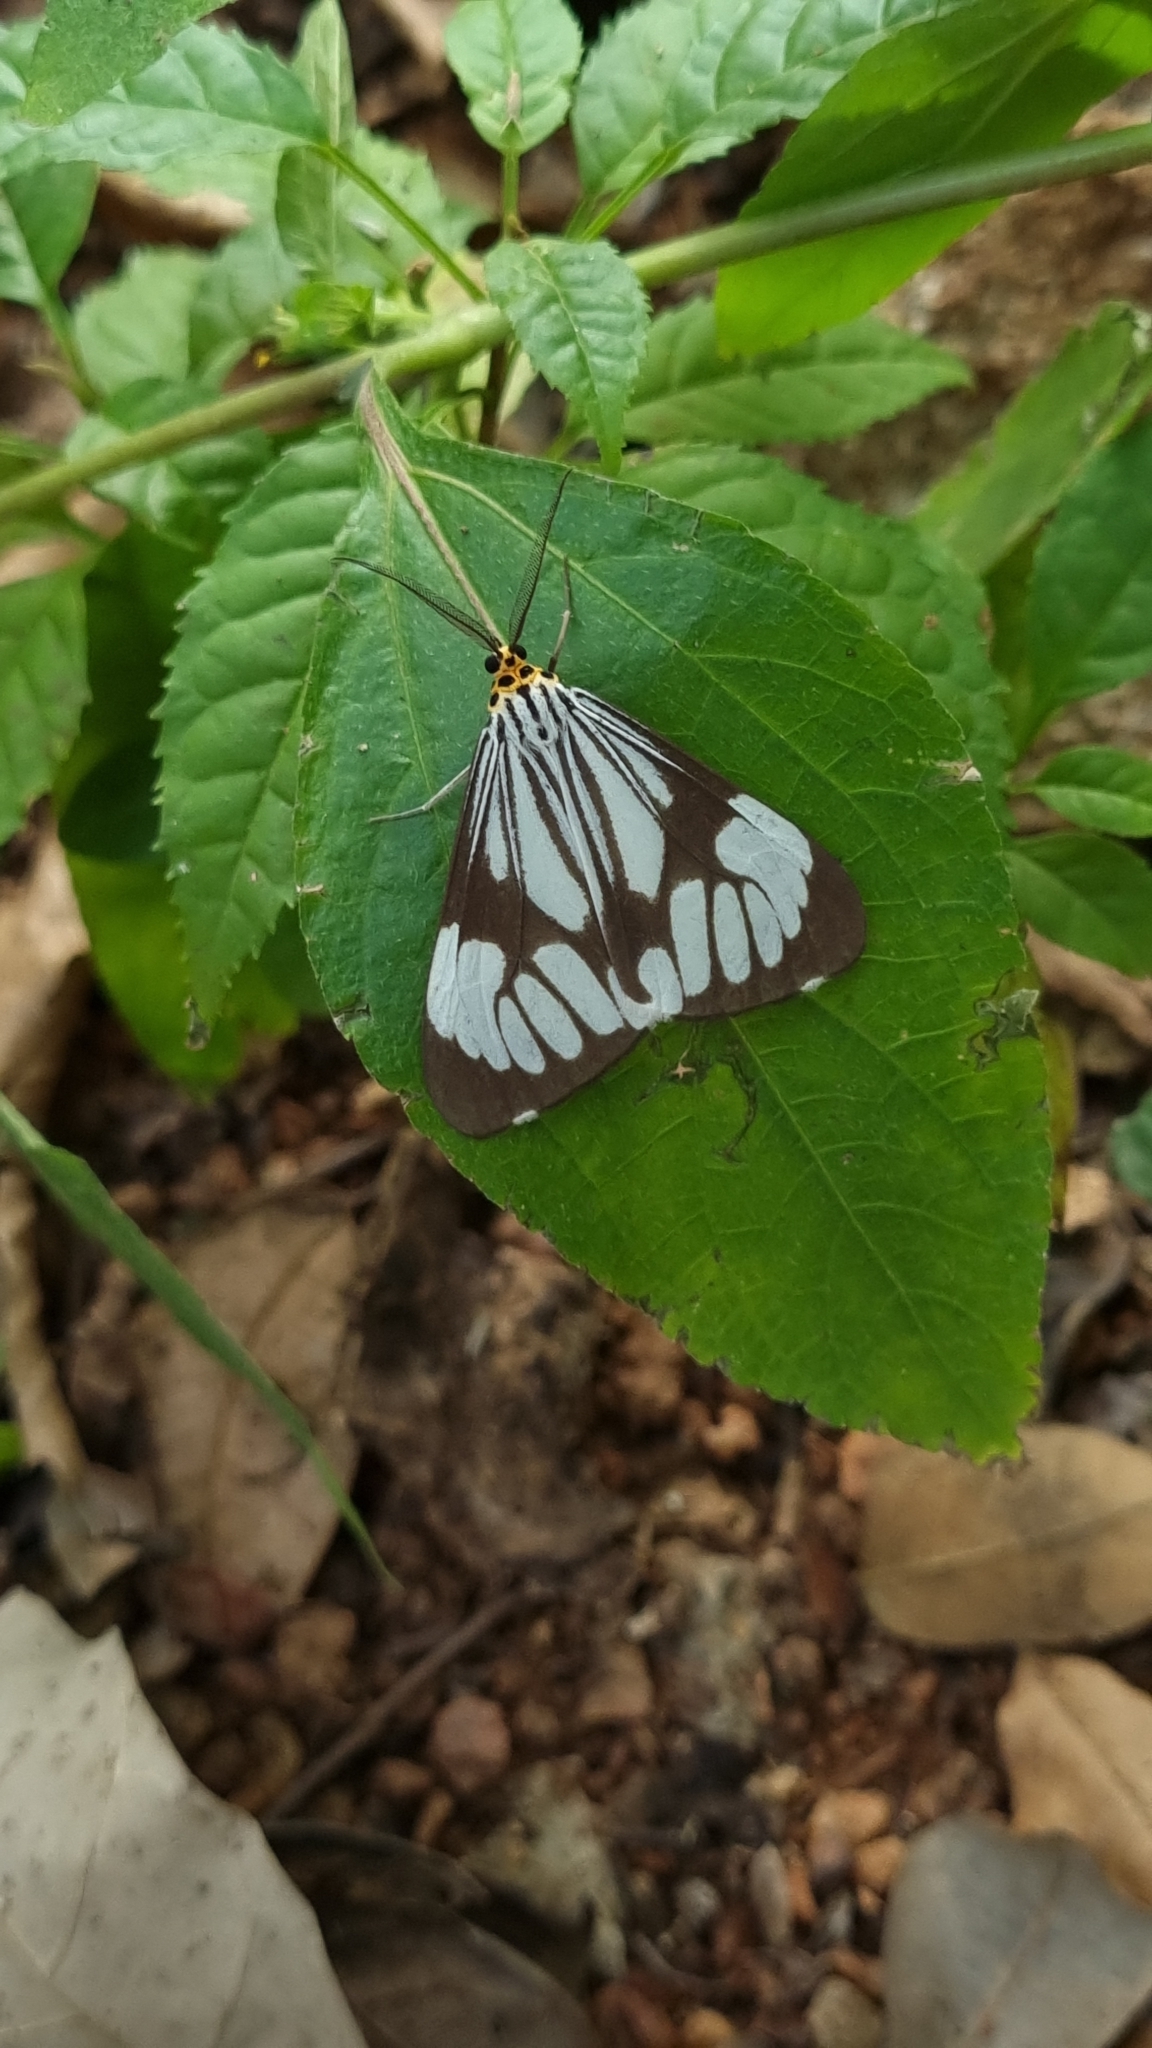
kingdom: Animalia
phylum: Arthropoda
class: Insecta
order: Lepidoptera
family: Erebidae
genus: Nyctemera
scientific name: Nyctemera coleta
